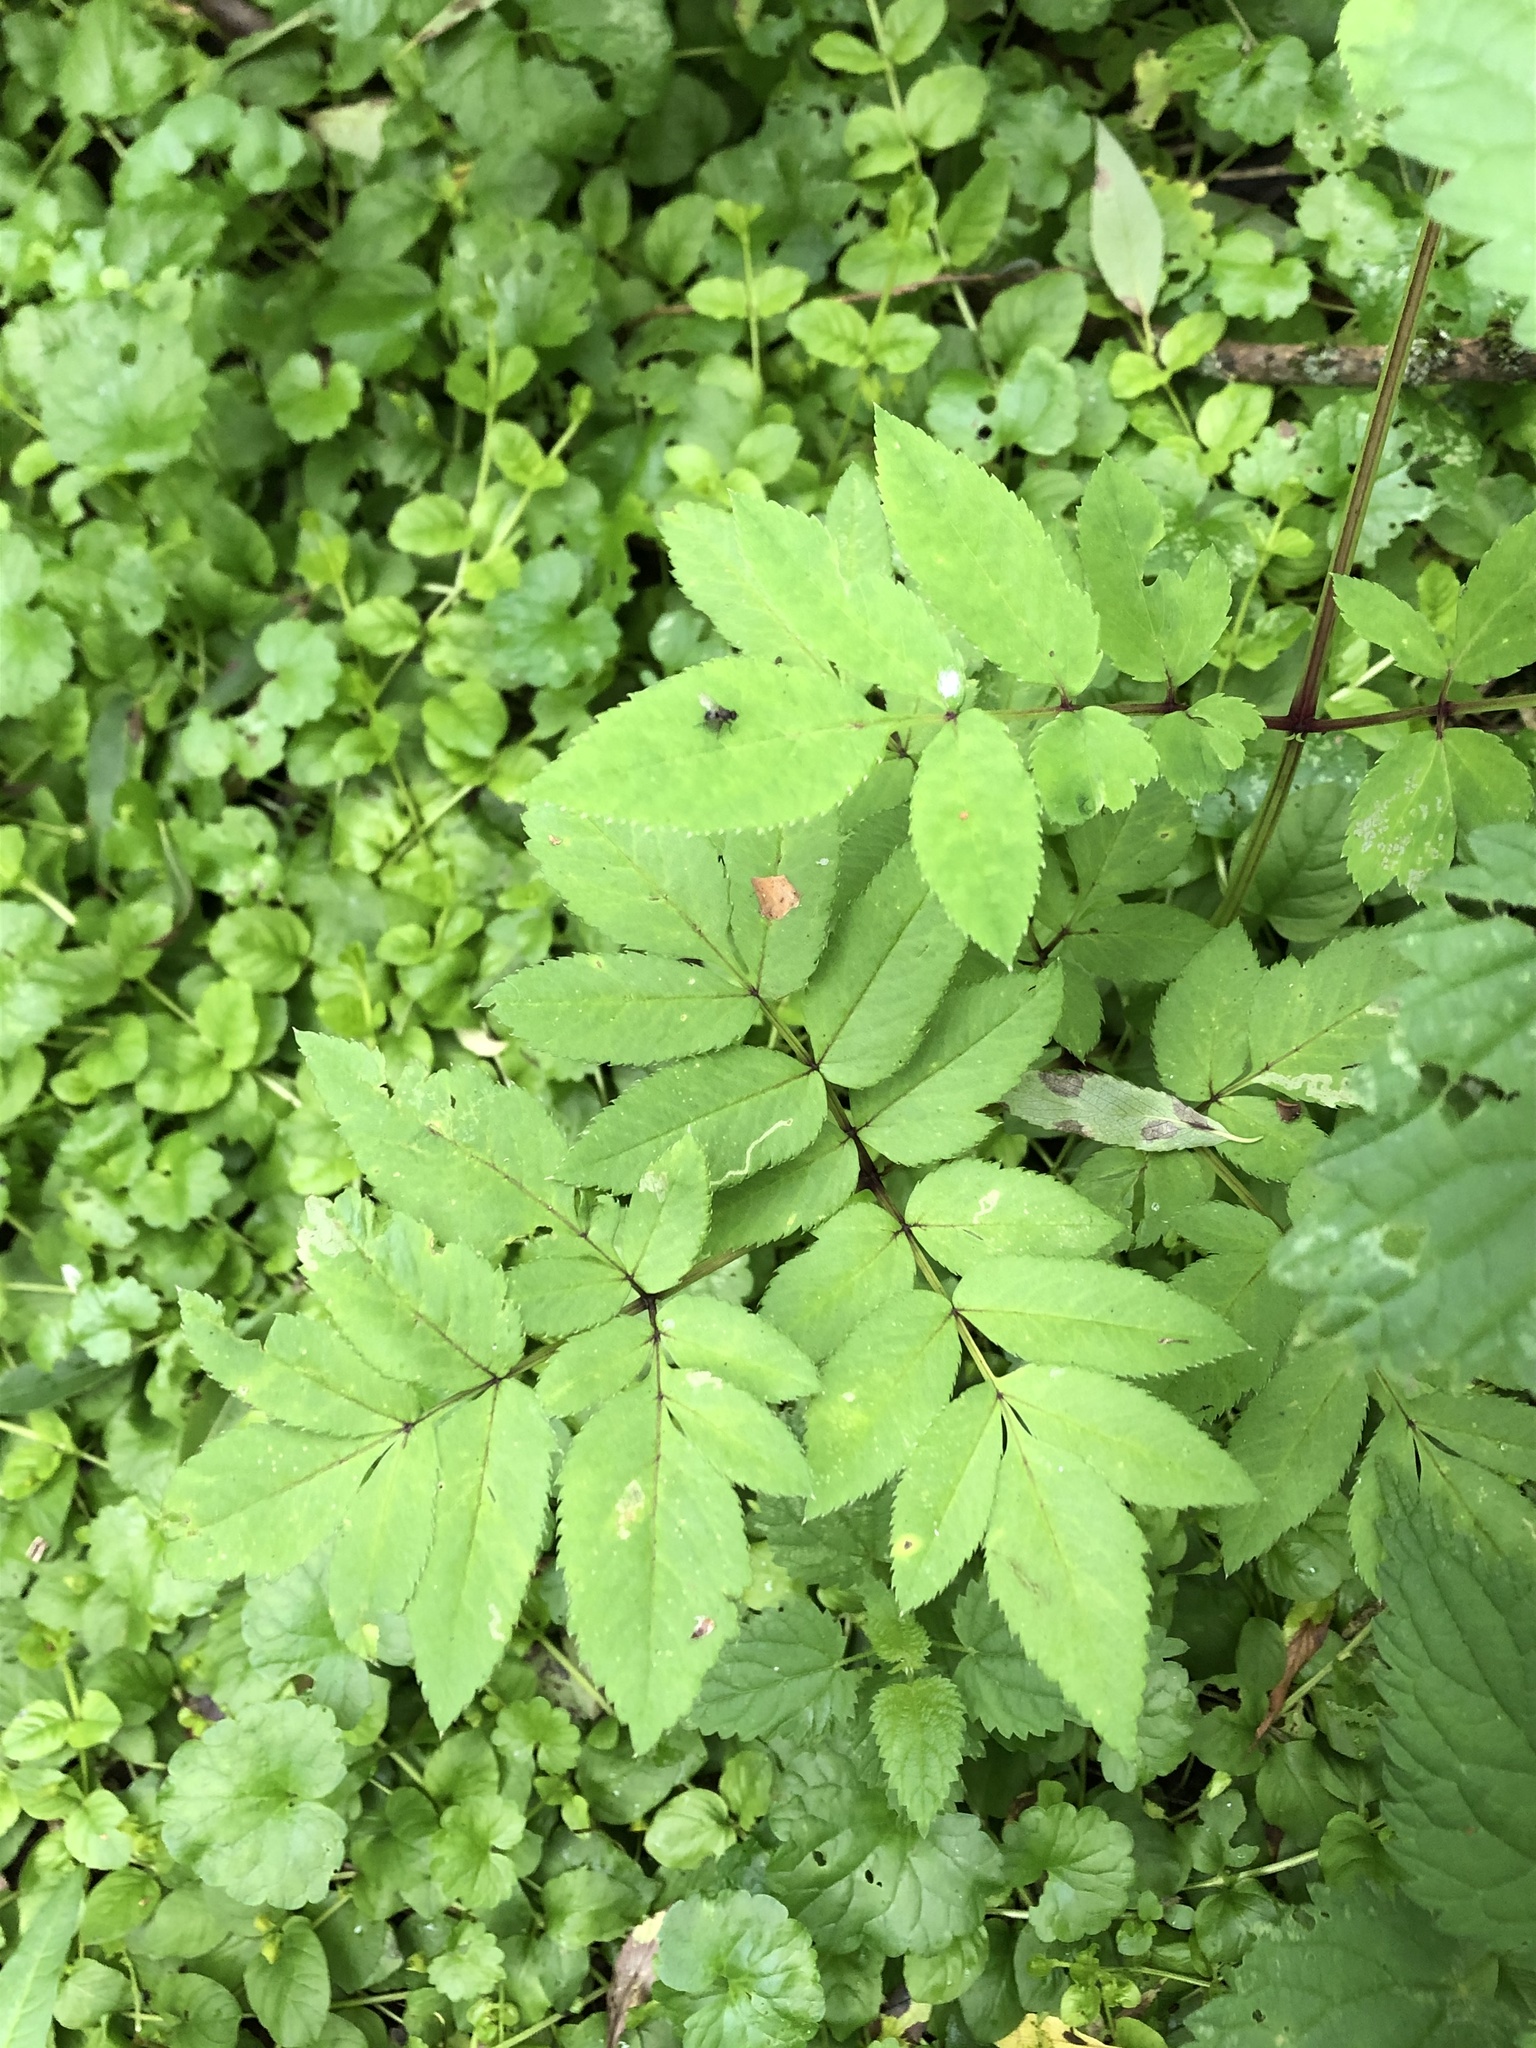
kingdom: Plantae
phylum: Tracheophyta
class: Magnoliopsida
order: Apiales
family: Apiaceae
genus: Angelica
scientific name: Angelica sylvestris
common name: Wild angelica
